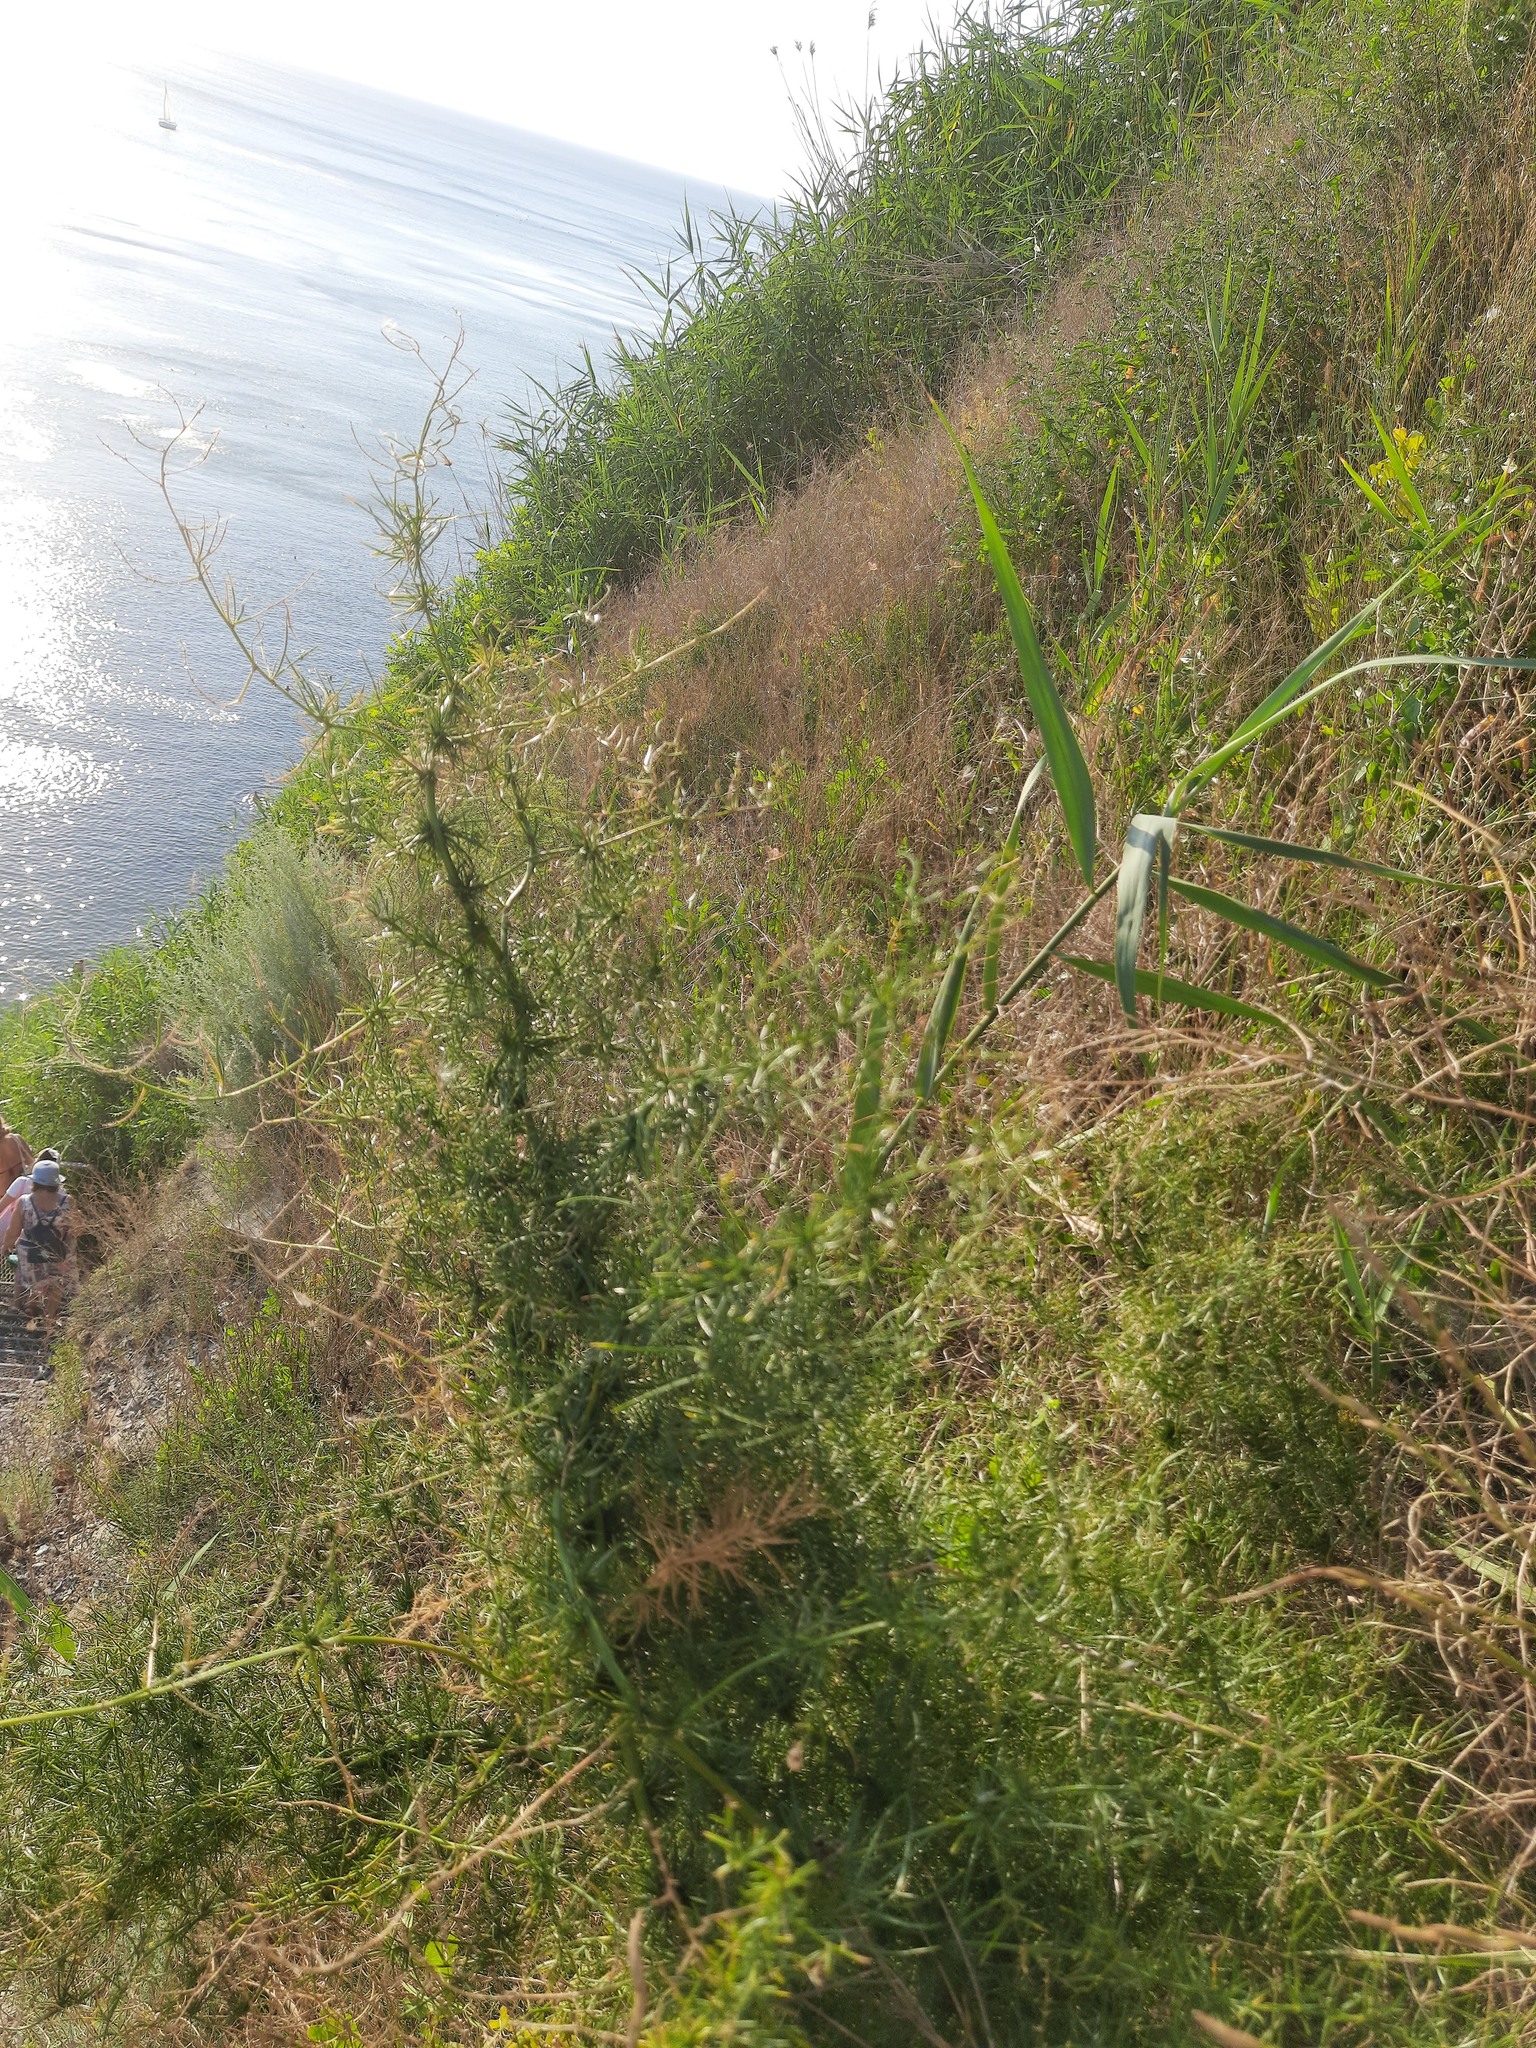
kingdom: Plantae
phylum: Tracheophyta
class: Liliopsida
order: Asparagales
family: Asparagaceae
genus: Asparagus
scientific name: Asparagus verticillatus
